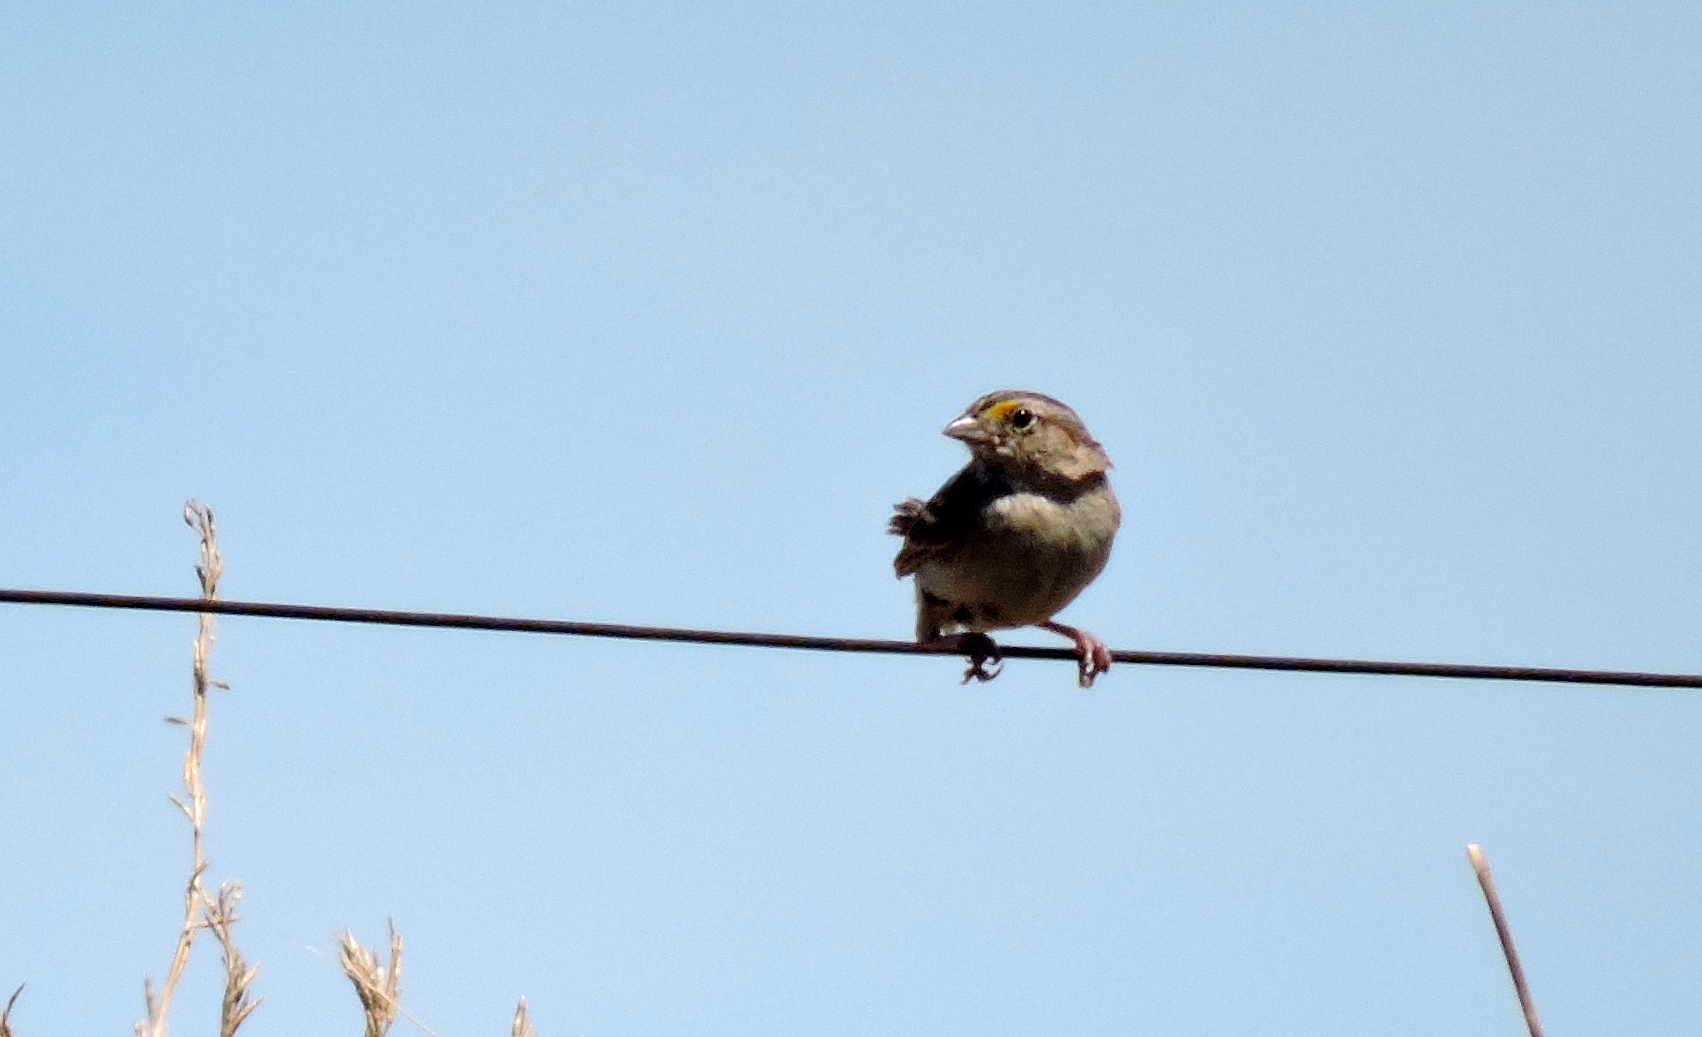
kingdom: Animalia
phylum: Chordata
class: Aves
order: Passeriformes
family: Passerellidae
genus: Ammodramus
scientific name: Ammodramus humeralis
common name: Grassland sparrow
